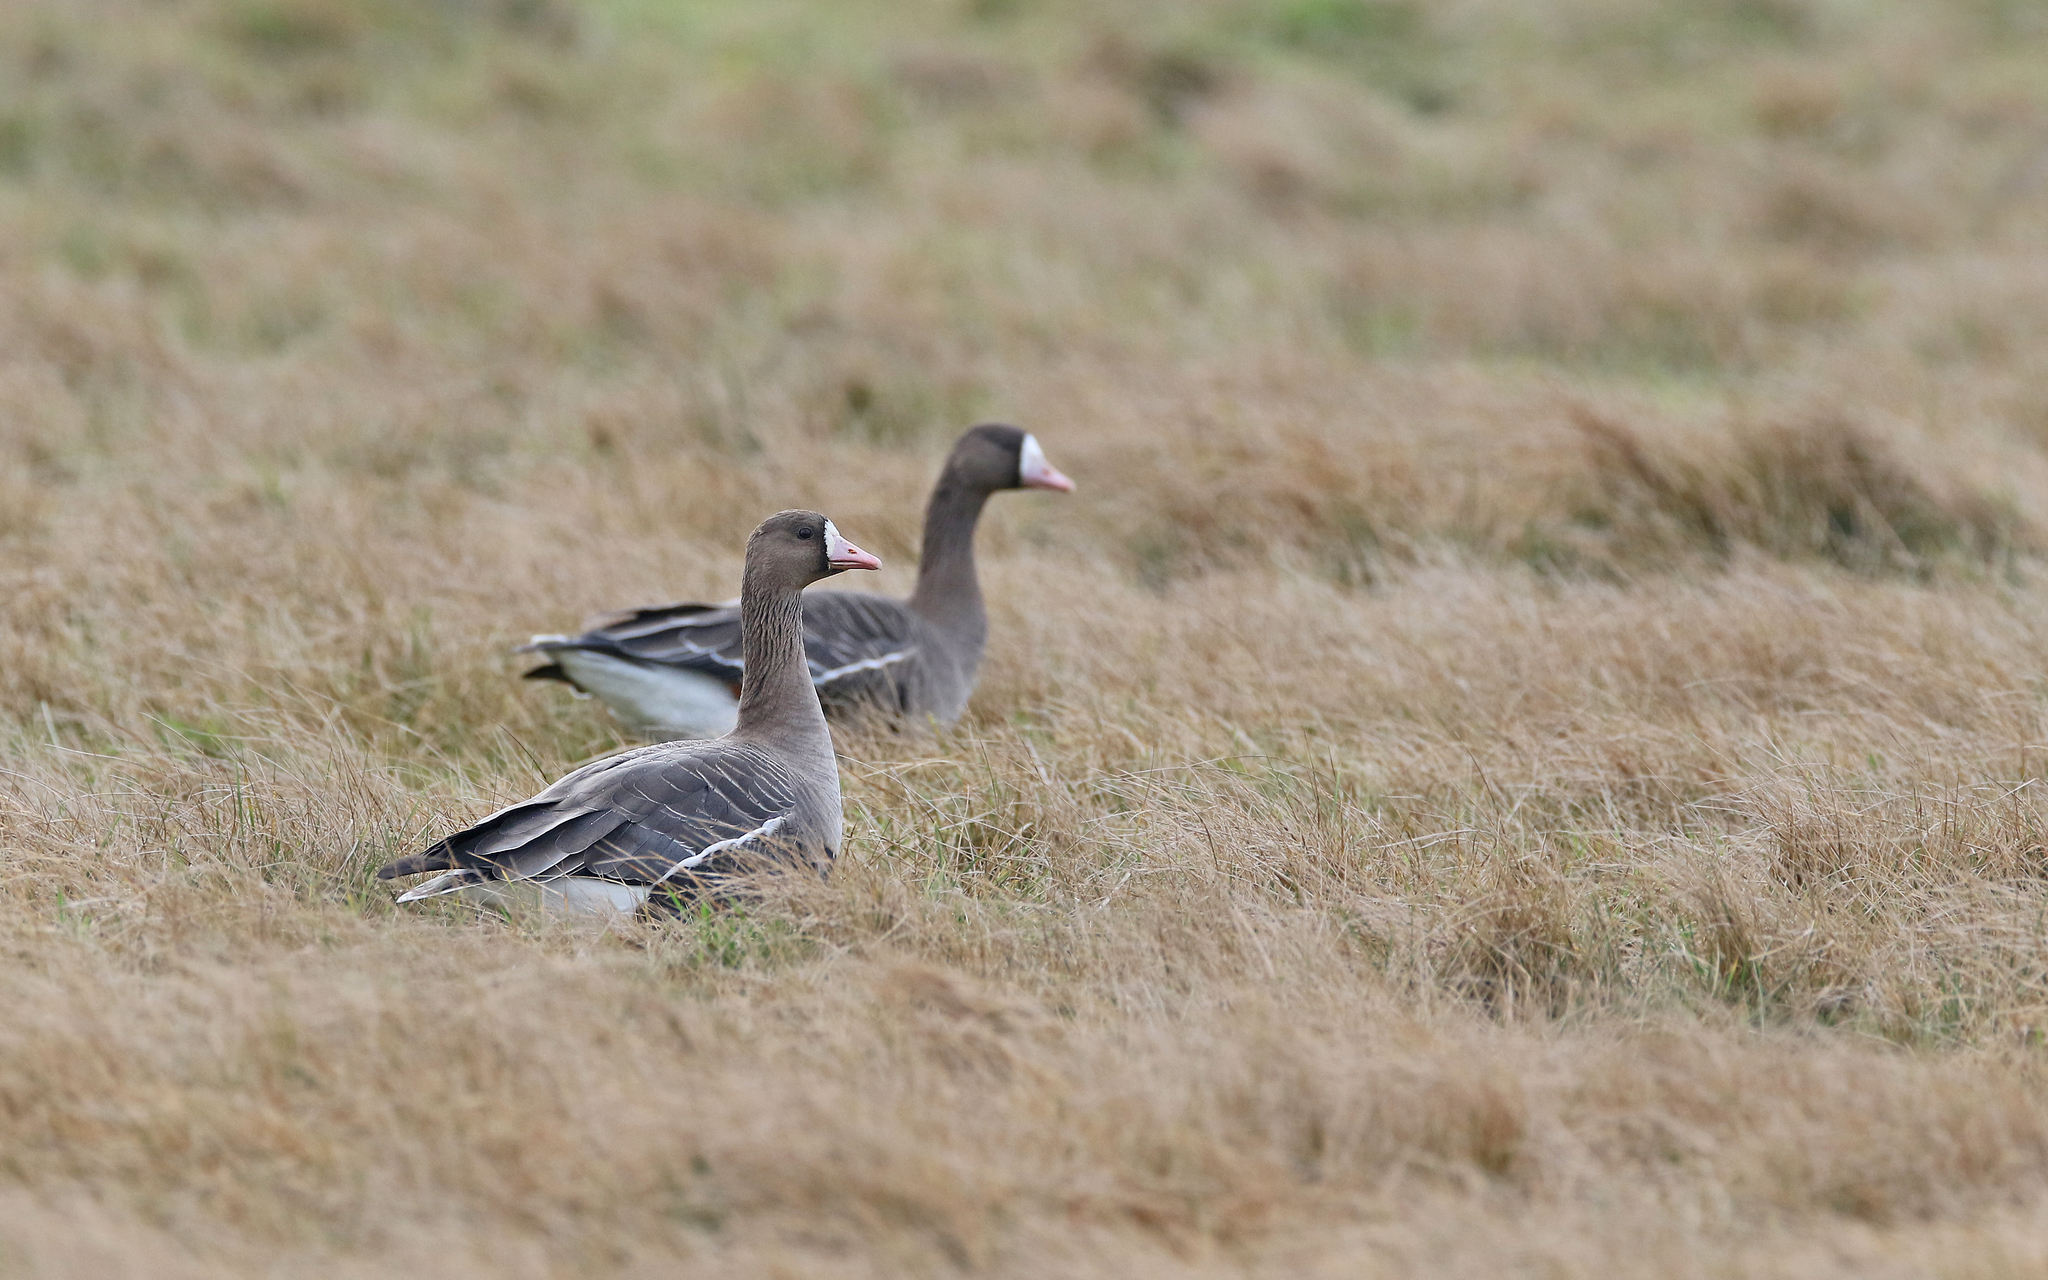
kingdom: Animalia
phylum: Chordata
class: Aves
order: Anseriformes
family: Anatidae
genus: Anser
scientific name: Anser albifrons
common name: Greater white-fronted goose
